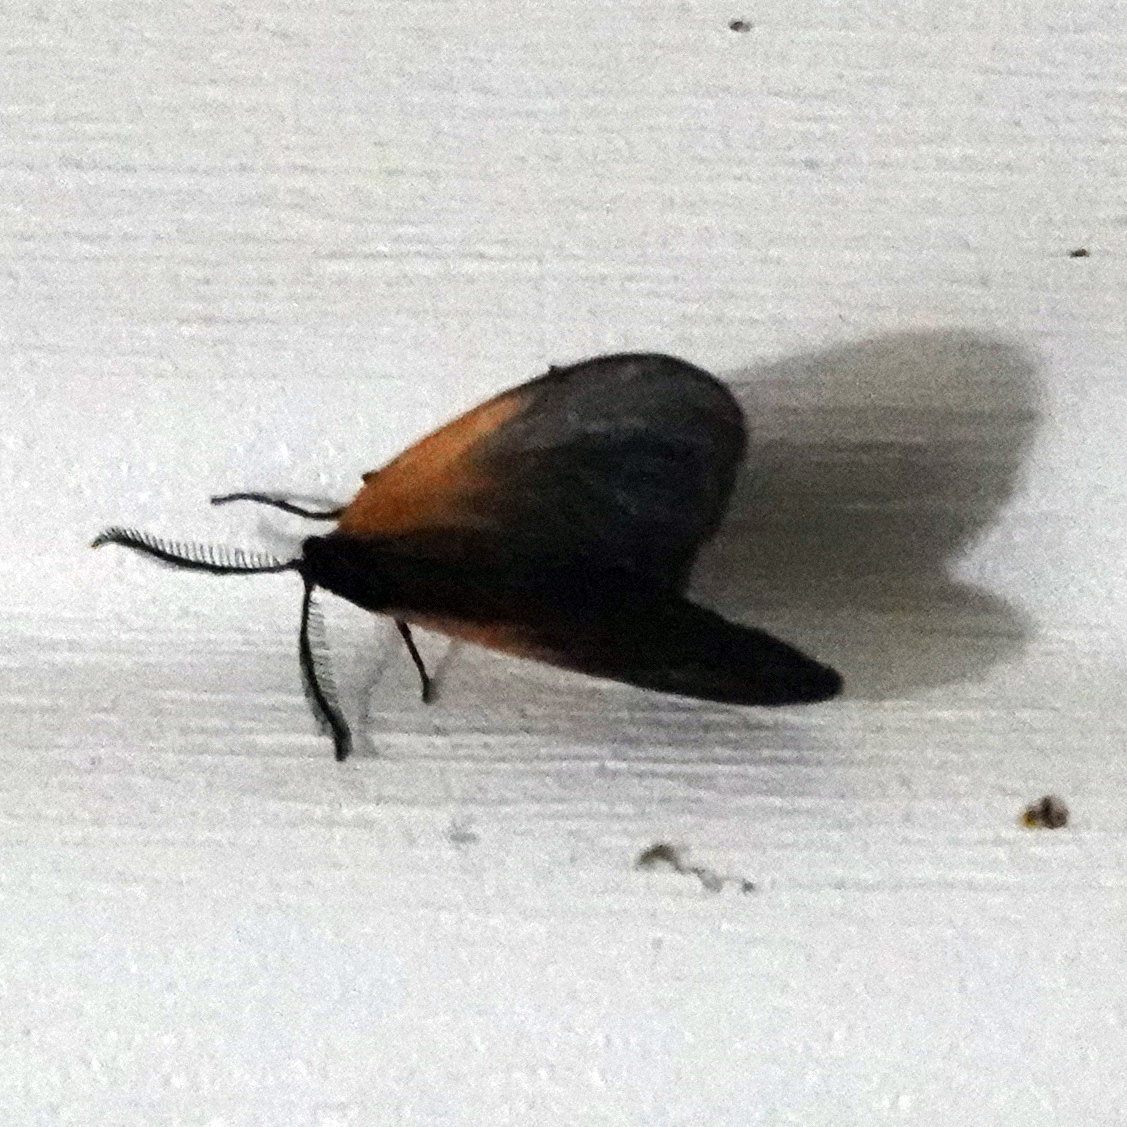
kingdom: Animalia
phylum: Arthropoda
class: Insecta
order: Lepidoptera
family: Zygaenidae
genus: Malthaca
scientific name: Malthaca dimidiata
